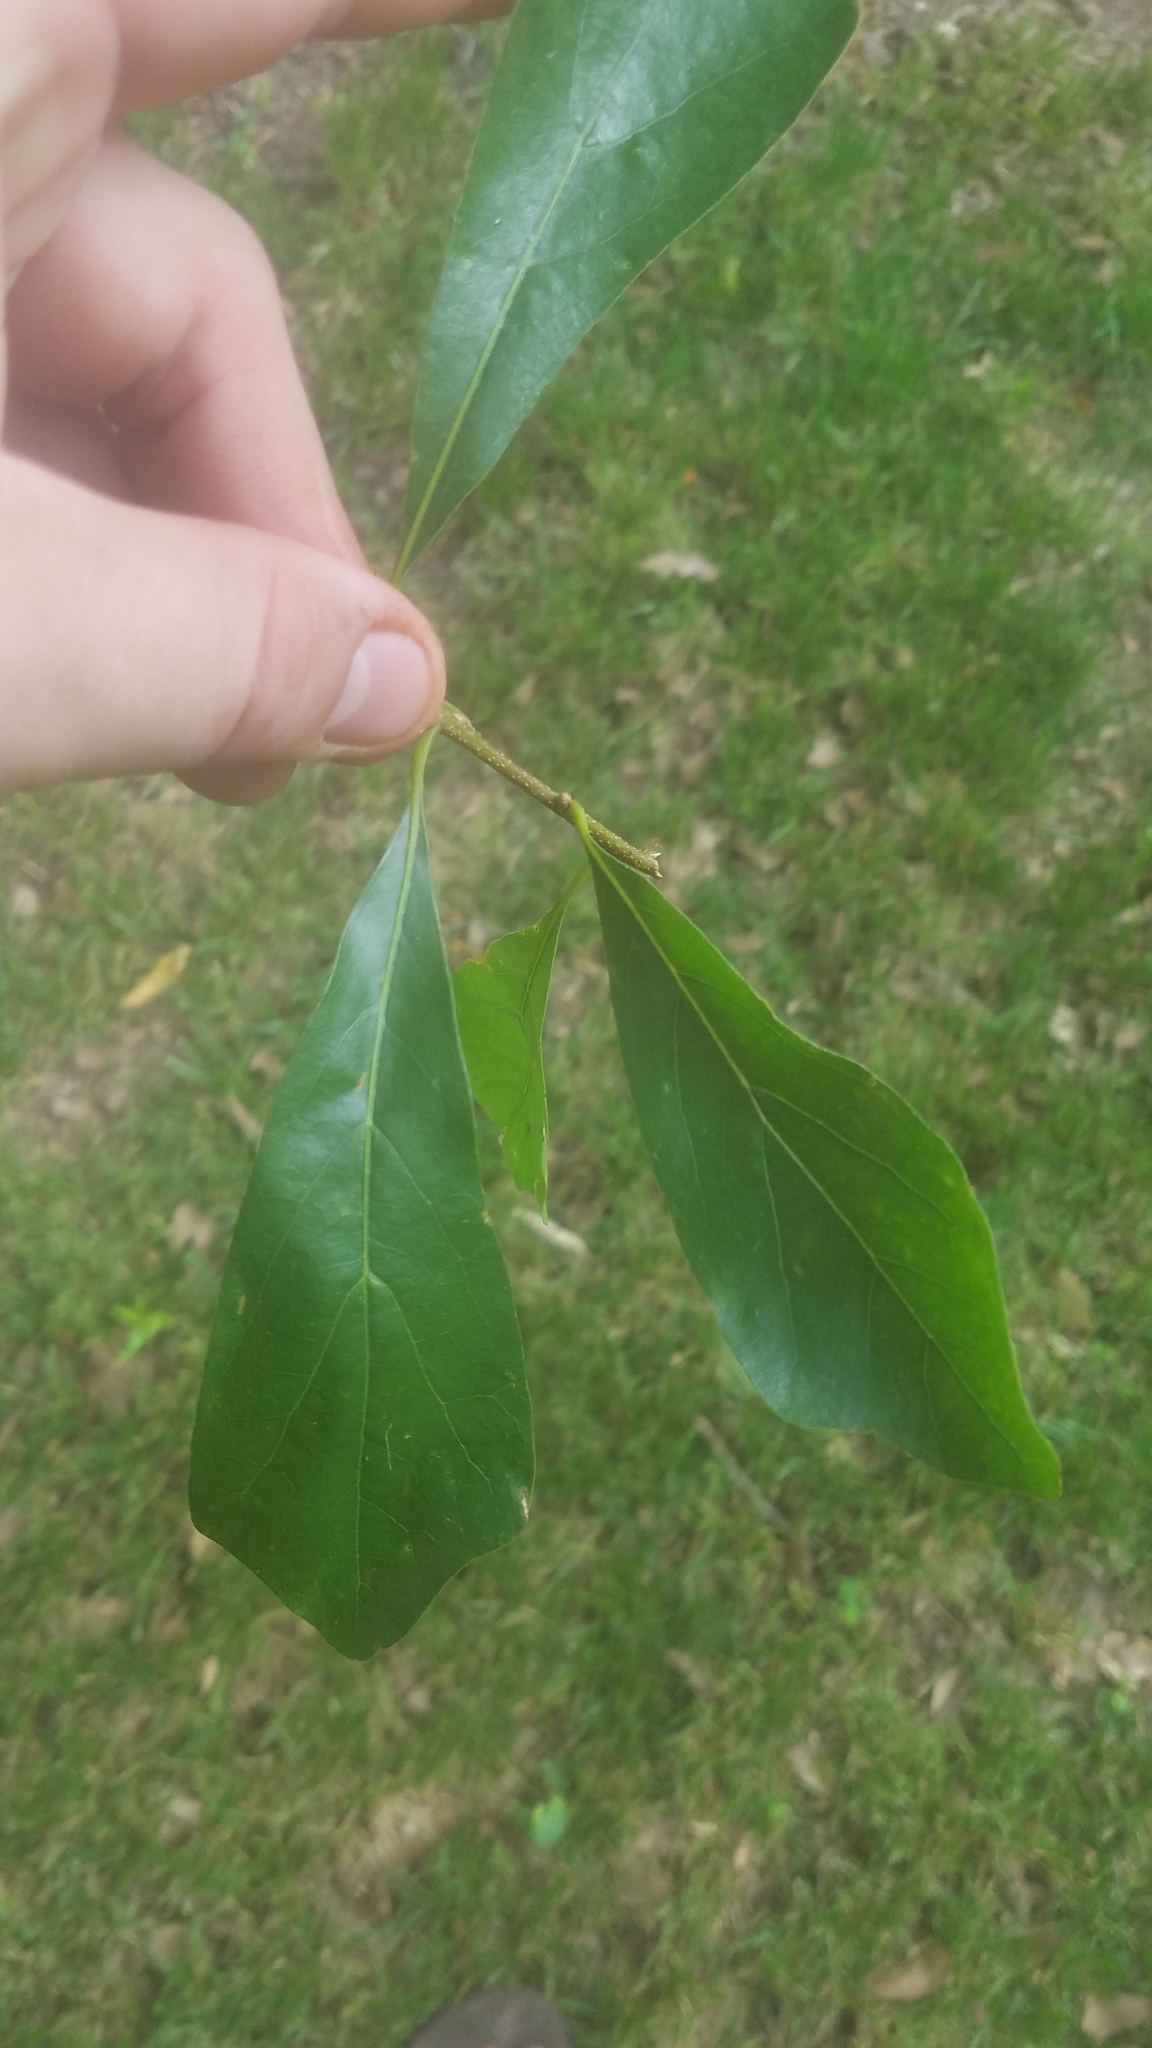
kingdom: Plantae
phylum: Tracheophyta
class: Magnoliopsida
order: Fagales
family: Fagaceae
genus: Quercus
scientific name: Quercus nigra
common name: Water oak
